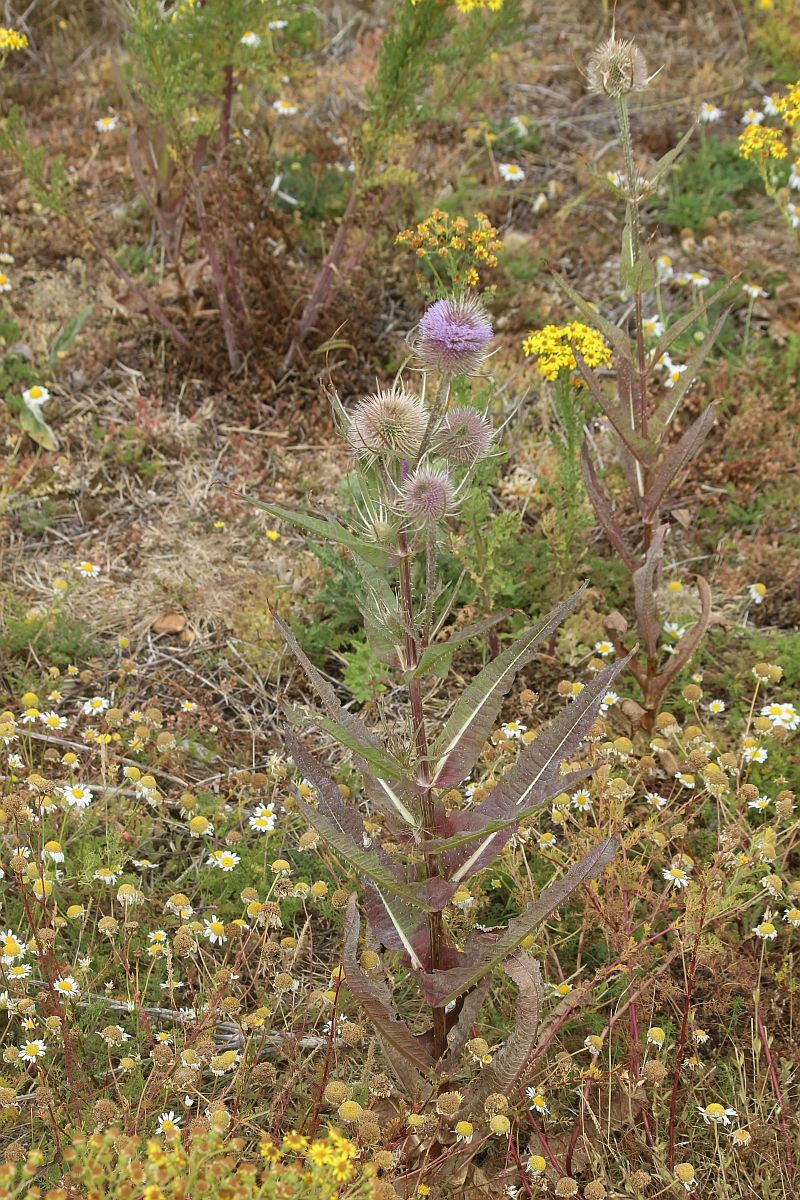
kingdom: Plantae
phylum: Tracheophyta
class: Magnoliopsida
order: Dipsacales
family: Caprifoliaceae
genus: Dipsacus
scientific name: Dipsacus fullonum
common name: Teasel
